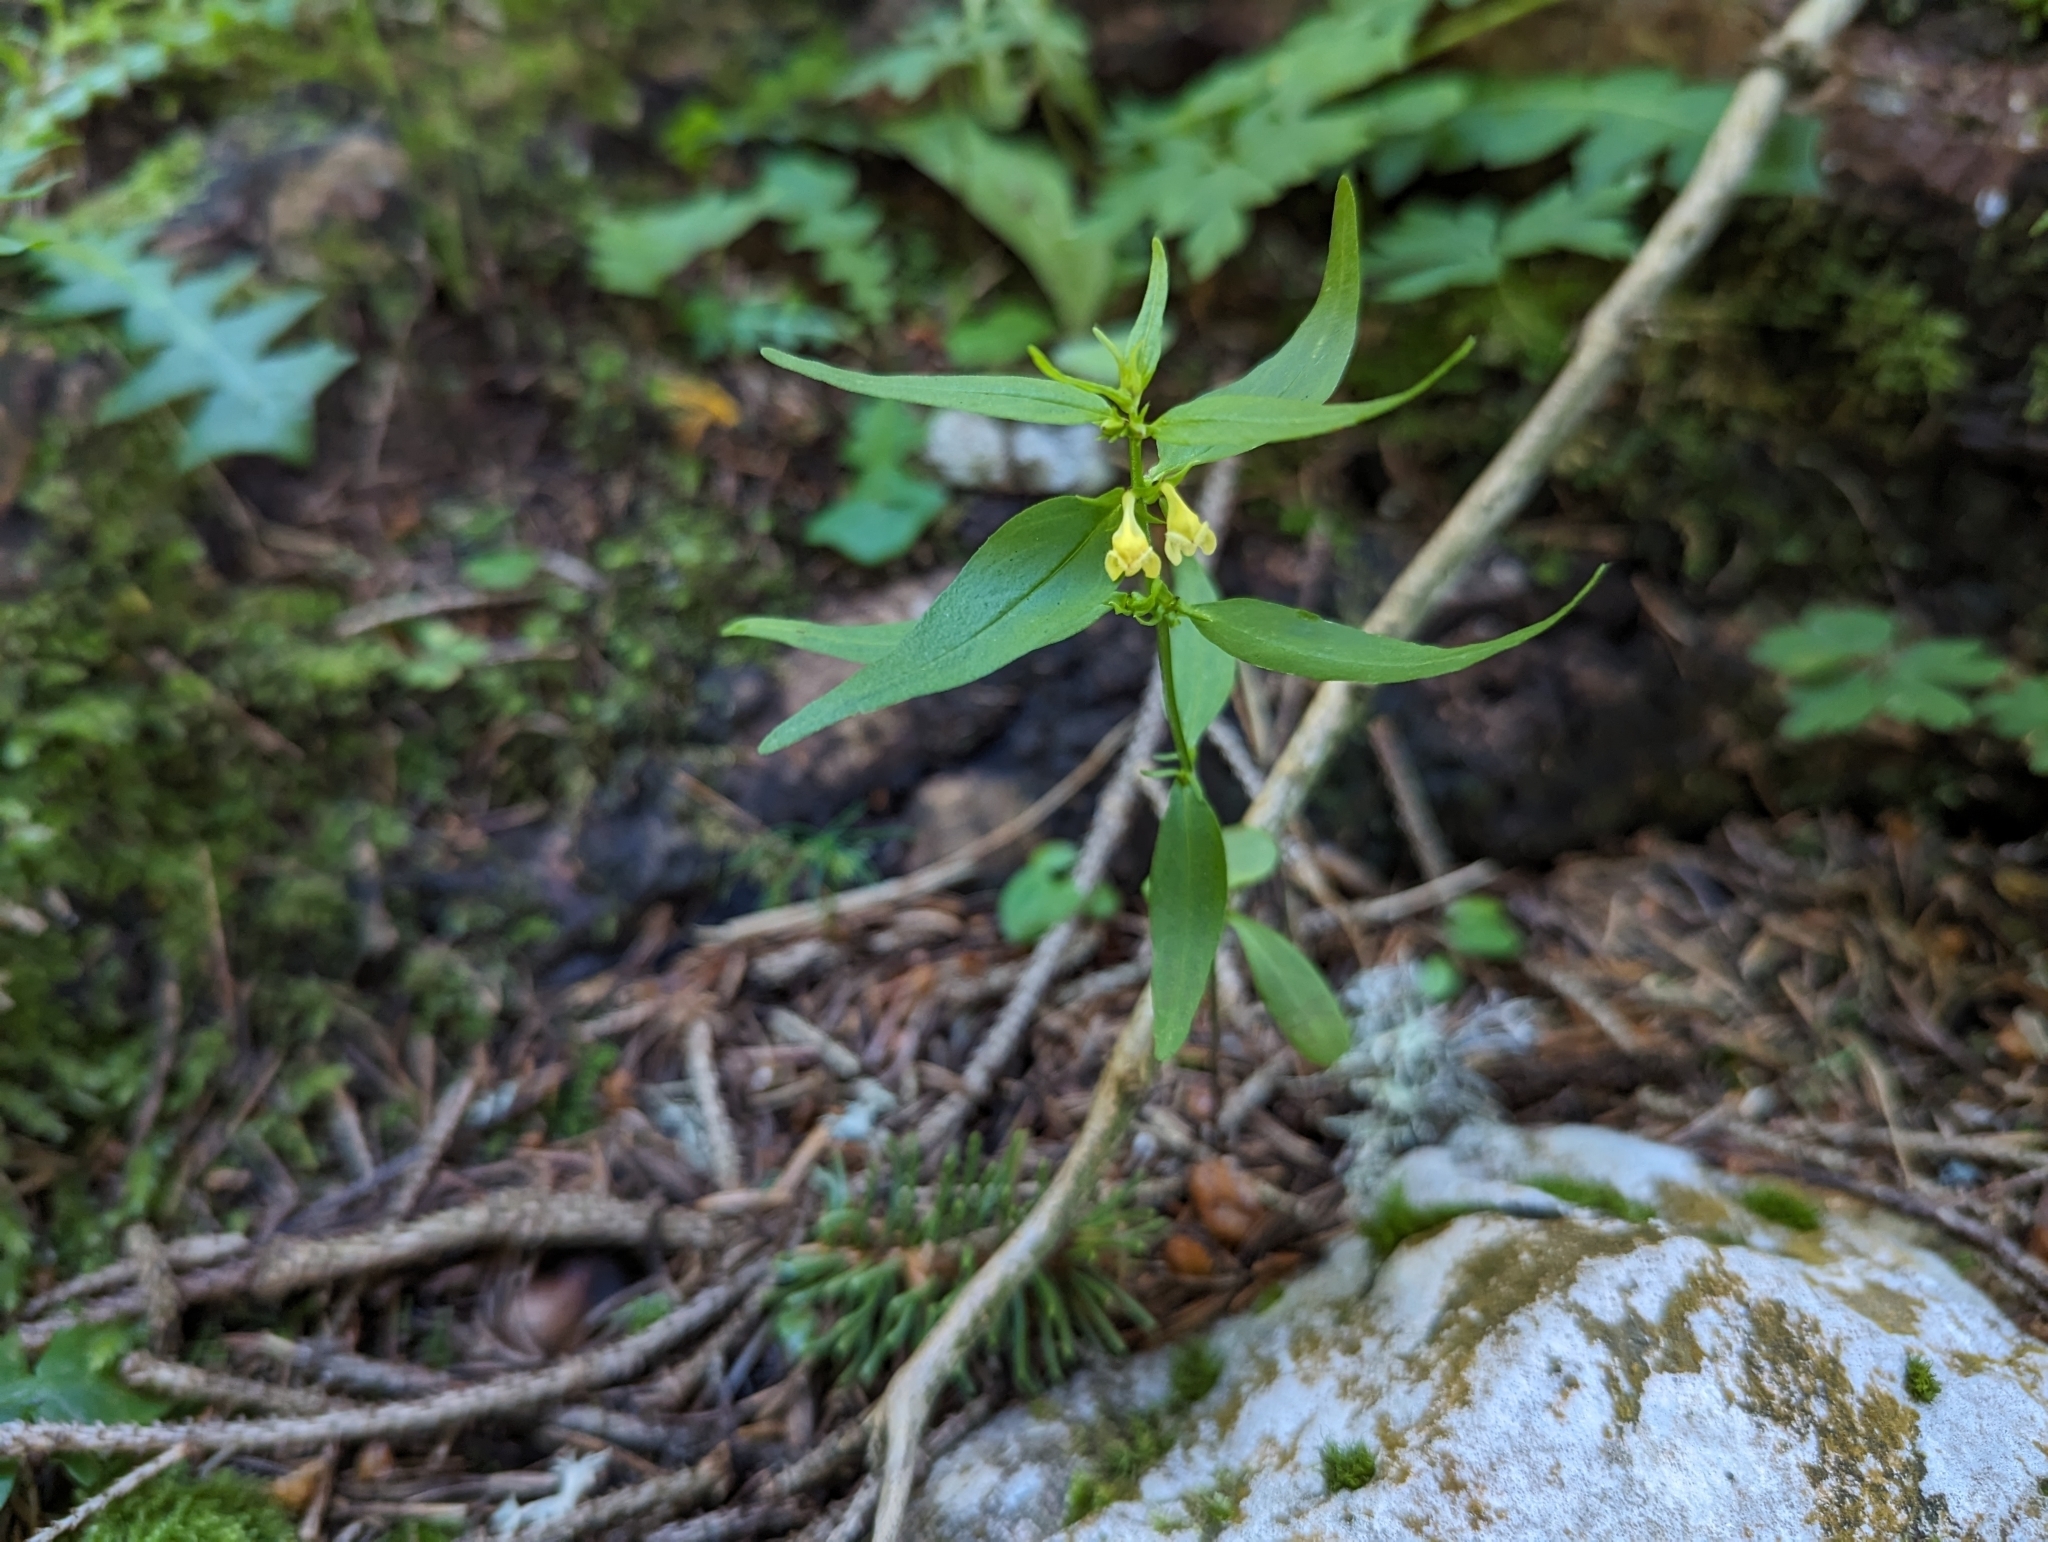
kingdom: Plantae
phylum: Tracheophyta
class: Magnoliopsida
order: Lamiales
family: Orobanchaceae
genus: Melampyrum
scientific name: Melampyrum sylvaticum
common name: Small cow-wheat
